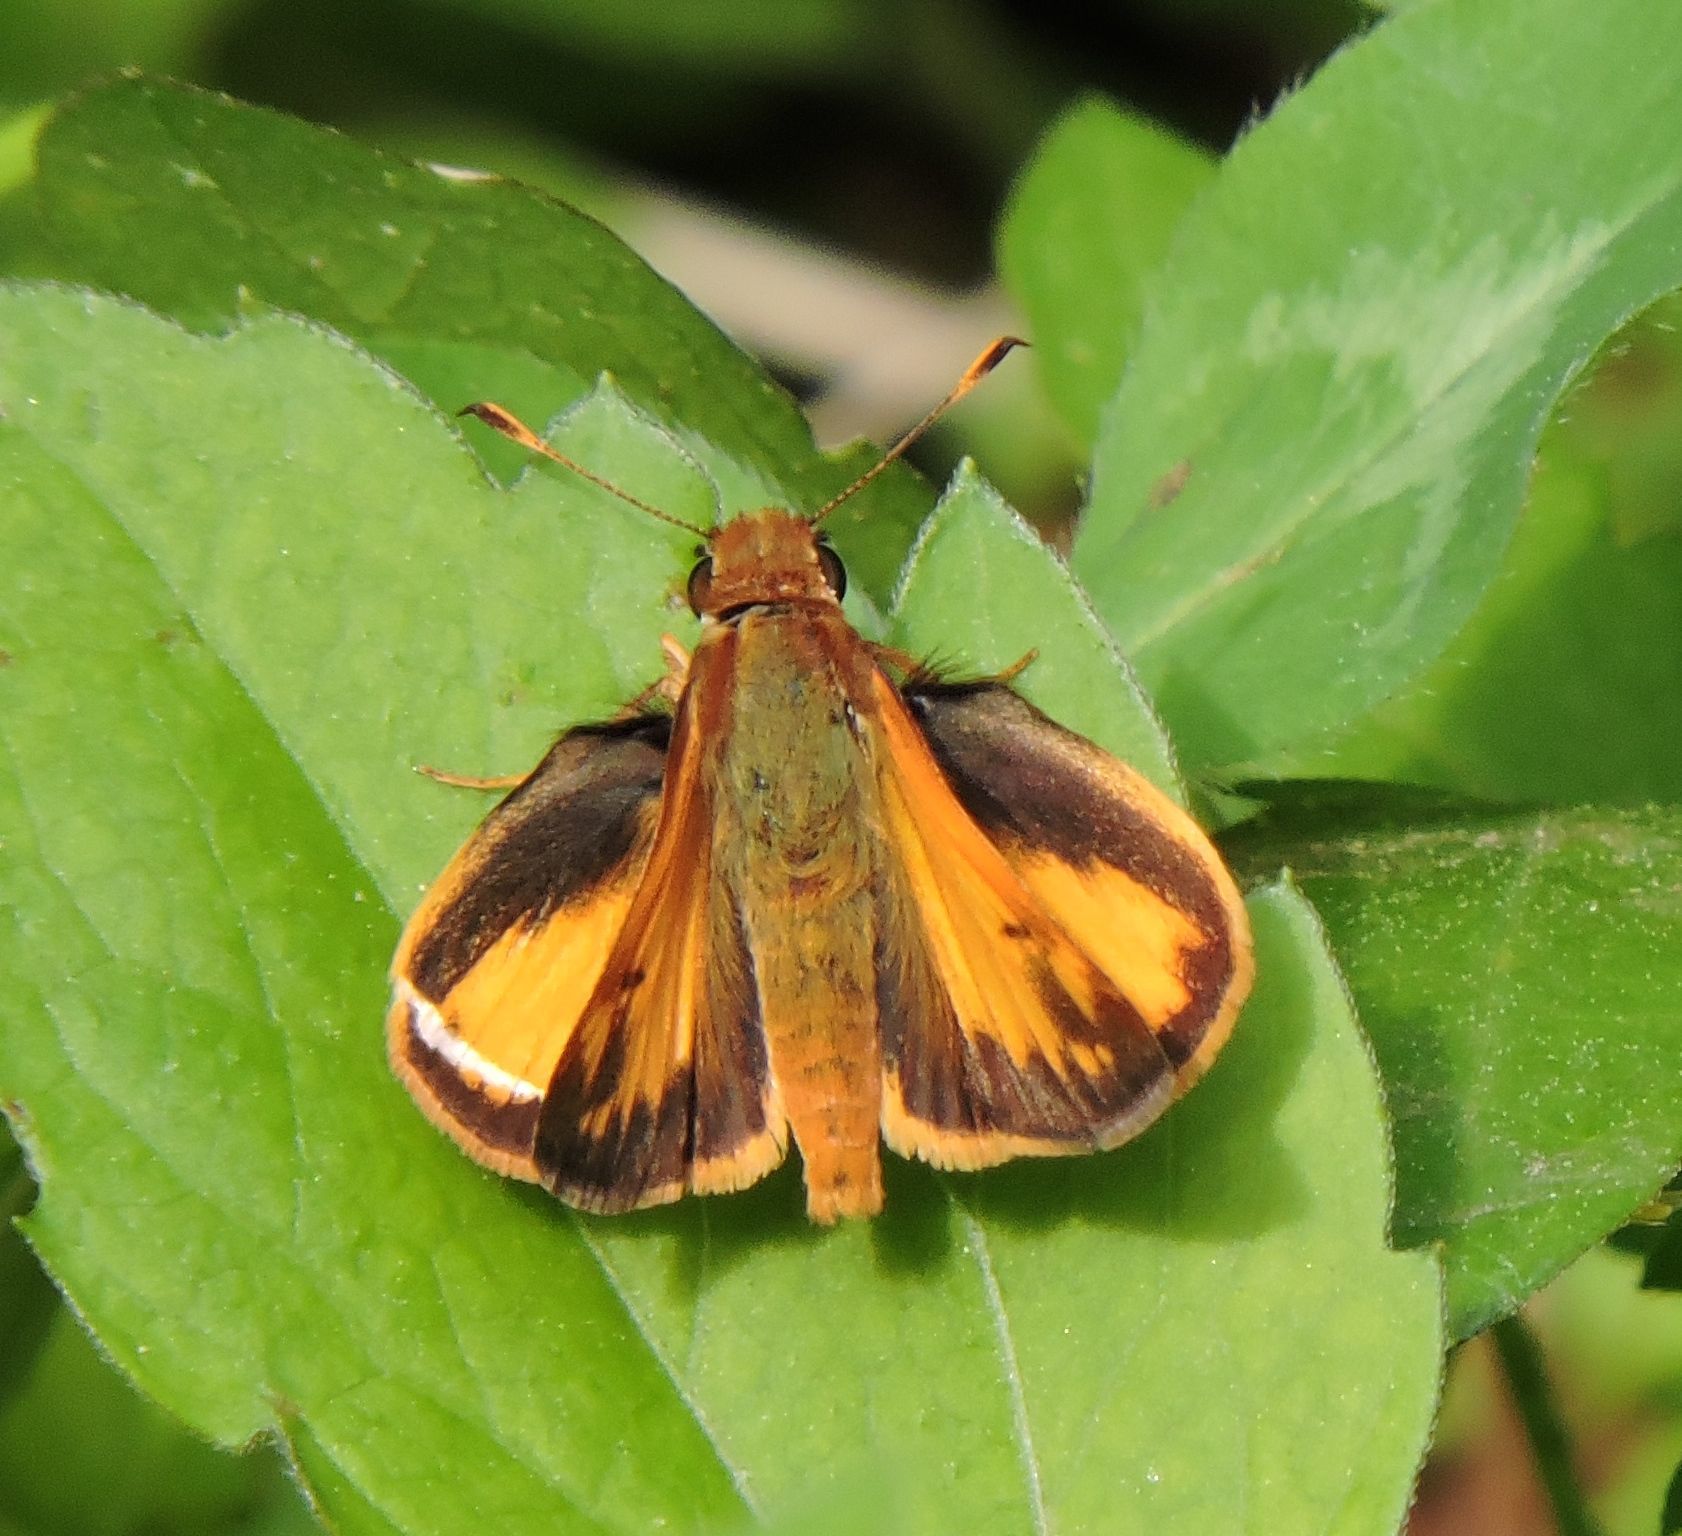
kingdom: Animalia
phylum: Arthropoda
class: Insecta
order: Lepidoptera
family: Hesperiidae
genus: Lon
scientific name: Lon zabulon
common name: Zabulon skipper
